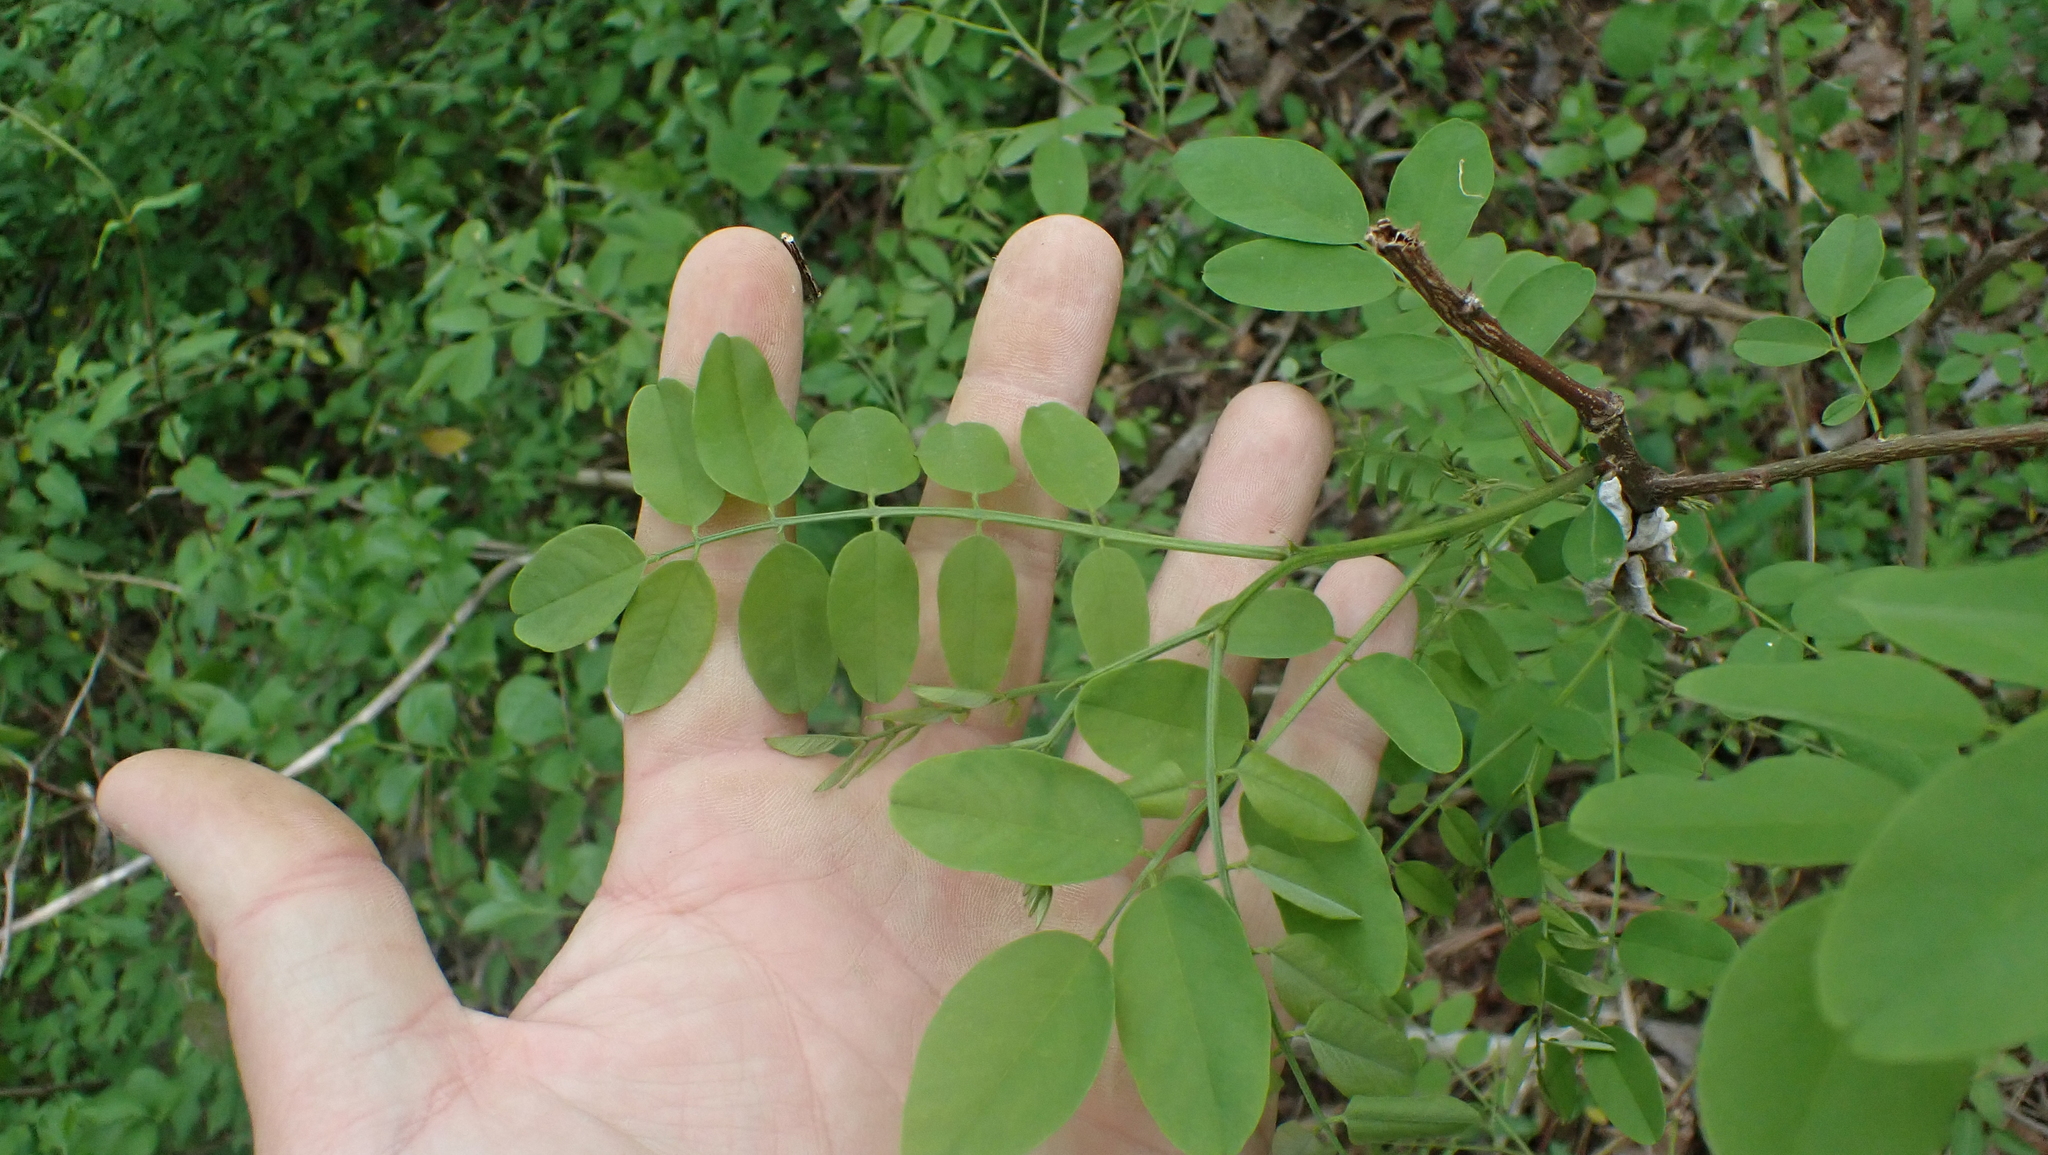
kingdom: Plantae
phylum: Tracheophyta
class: Magnoliopsida
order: Fabales
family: Fabaceae
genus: Robinia
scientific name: Robinia pseudoacacia
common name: Black locust
